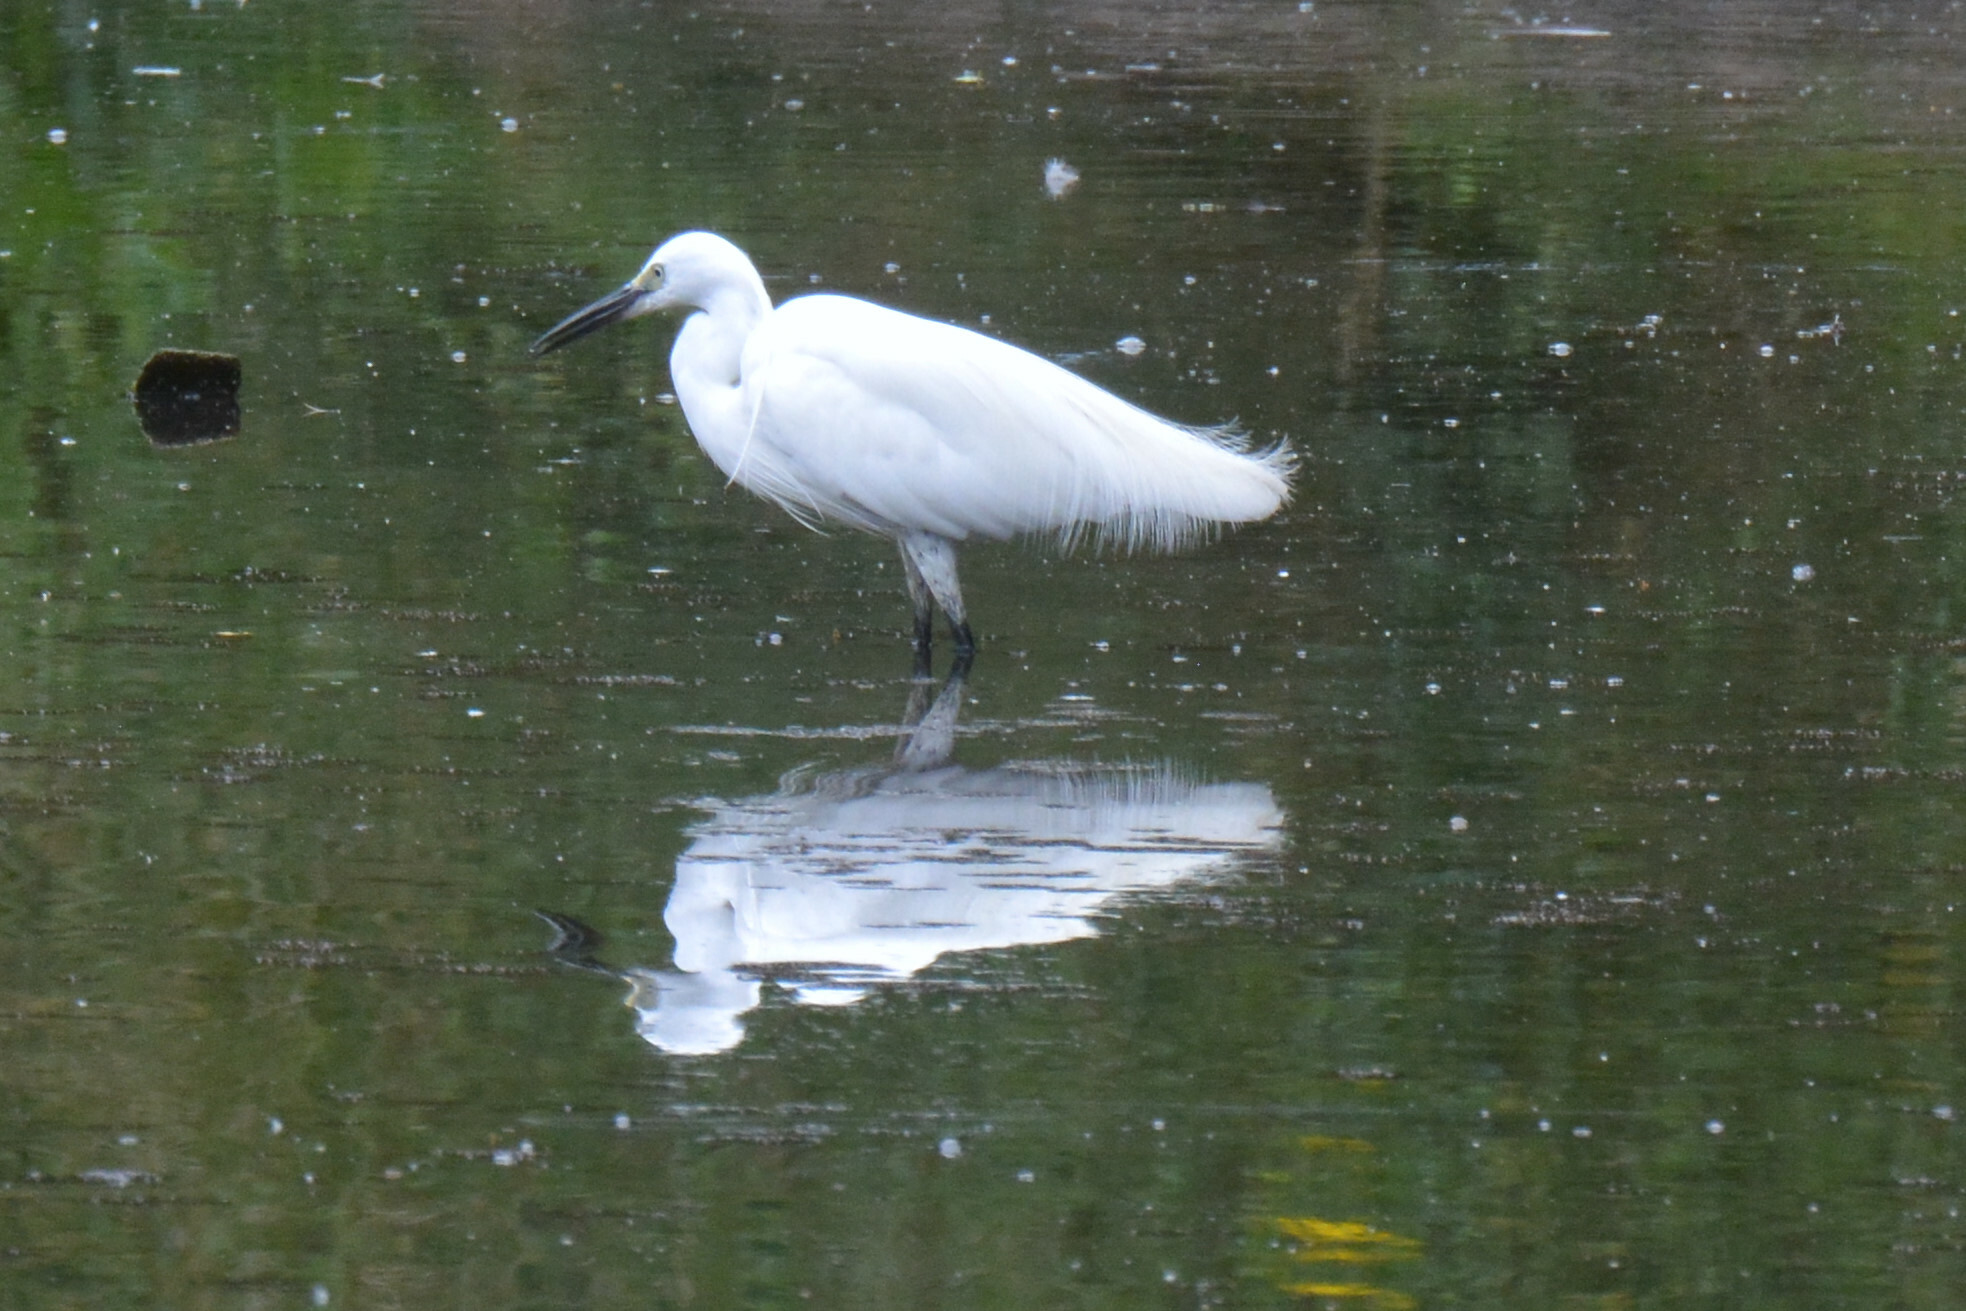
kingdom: Animalia
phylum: Chordata
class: Aves
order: Pelecaniformes
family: Ardeidae
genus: Egretta
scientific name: Egretta garzetta
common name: Little egret
